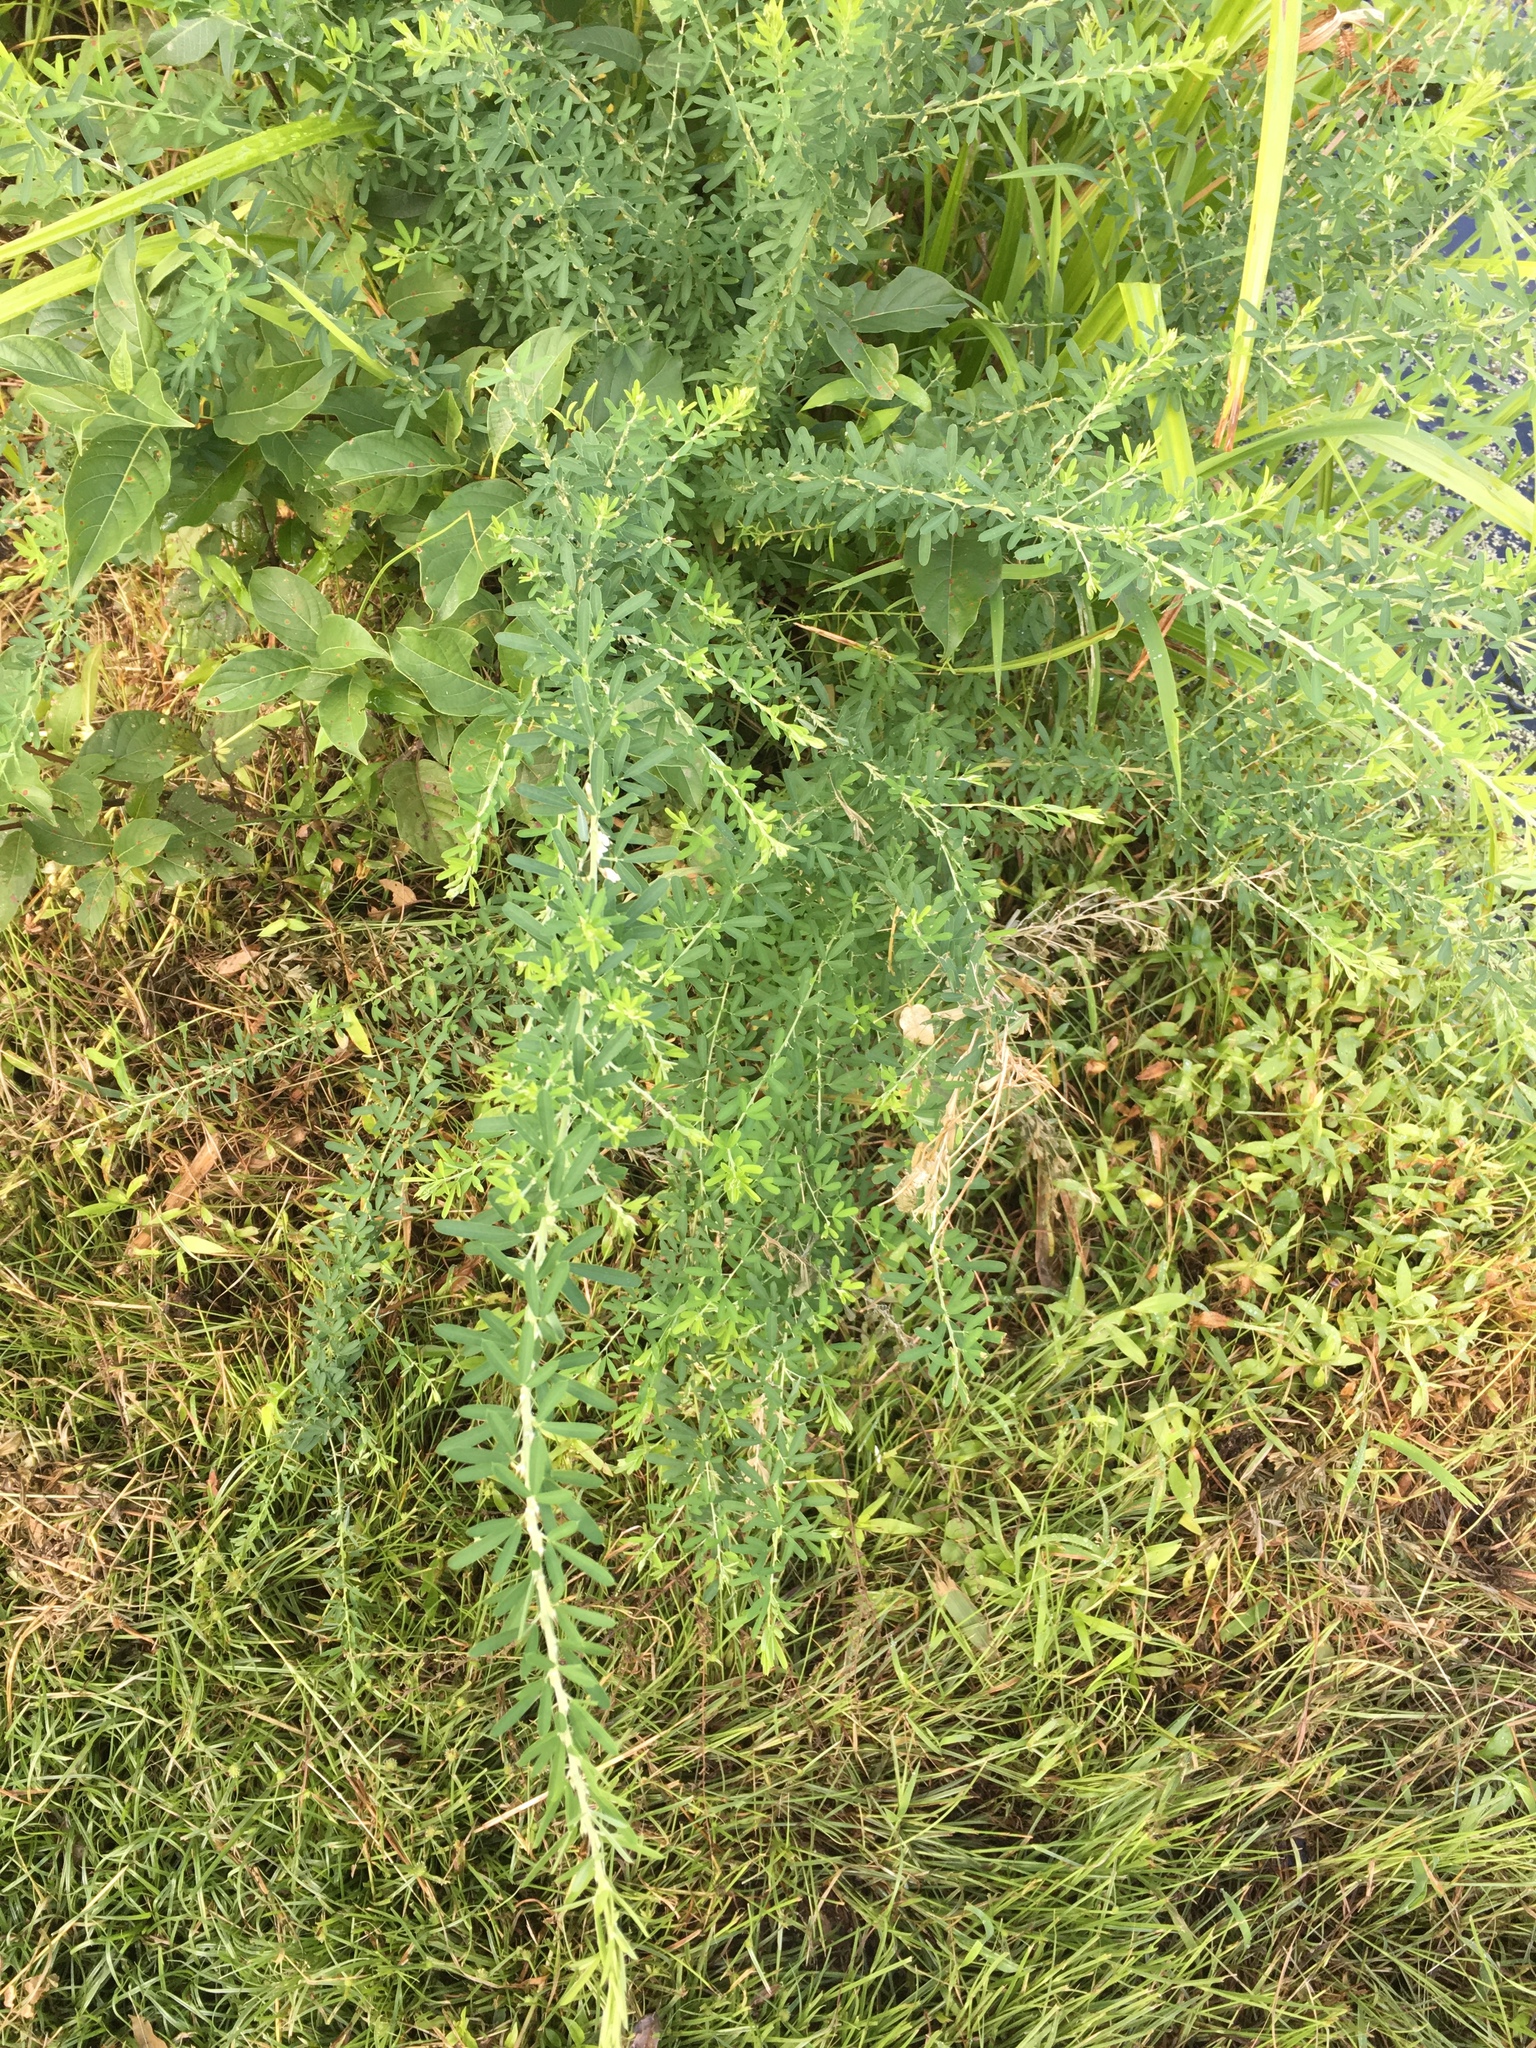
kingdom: Plantae
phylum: Tracheophyta
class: Magnoliopsida
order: Fabales
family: Fabaceae
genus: Lespedeza
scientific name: Lespedeza cuneata
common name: Chinese bush-clover
